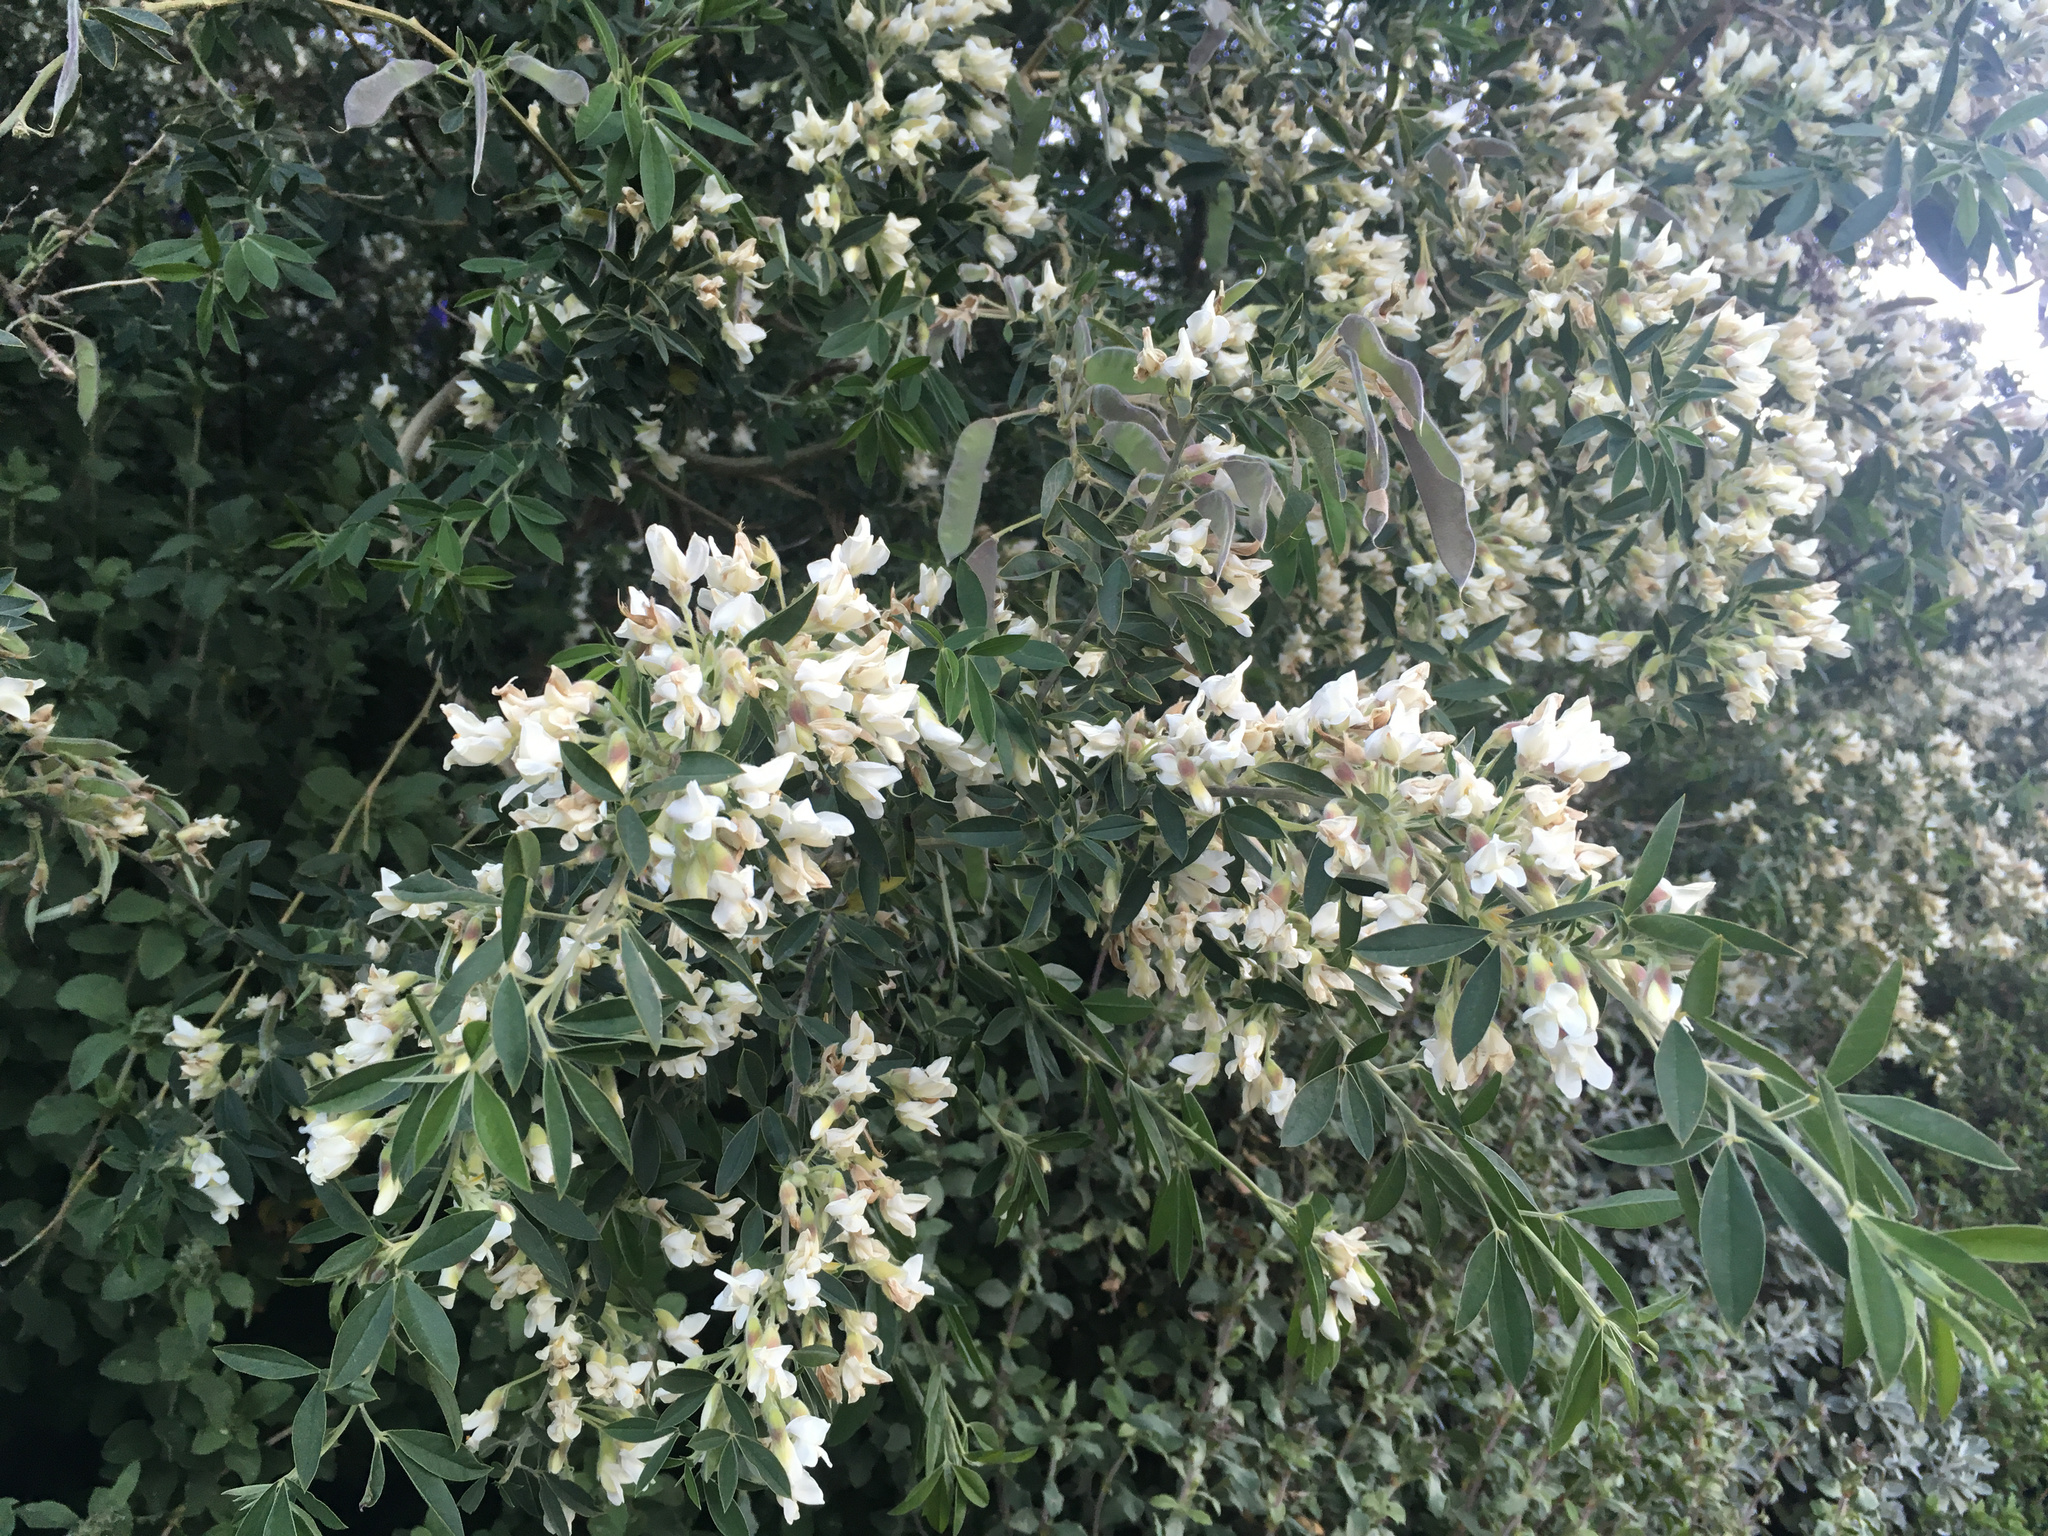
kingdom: Plantae
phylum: Tracheophyta
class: Magnoliopsida
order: Fabales
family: Fabaceae
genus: Chamaecytisus
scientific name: Chamaecytisus prolifer
